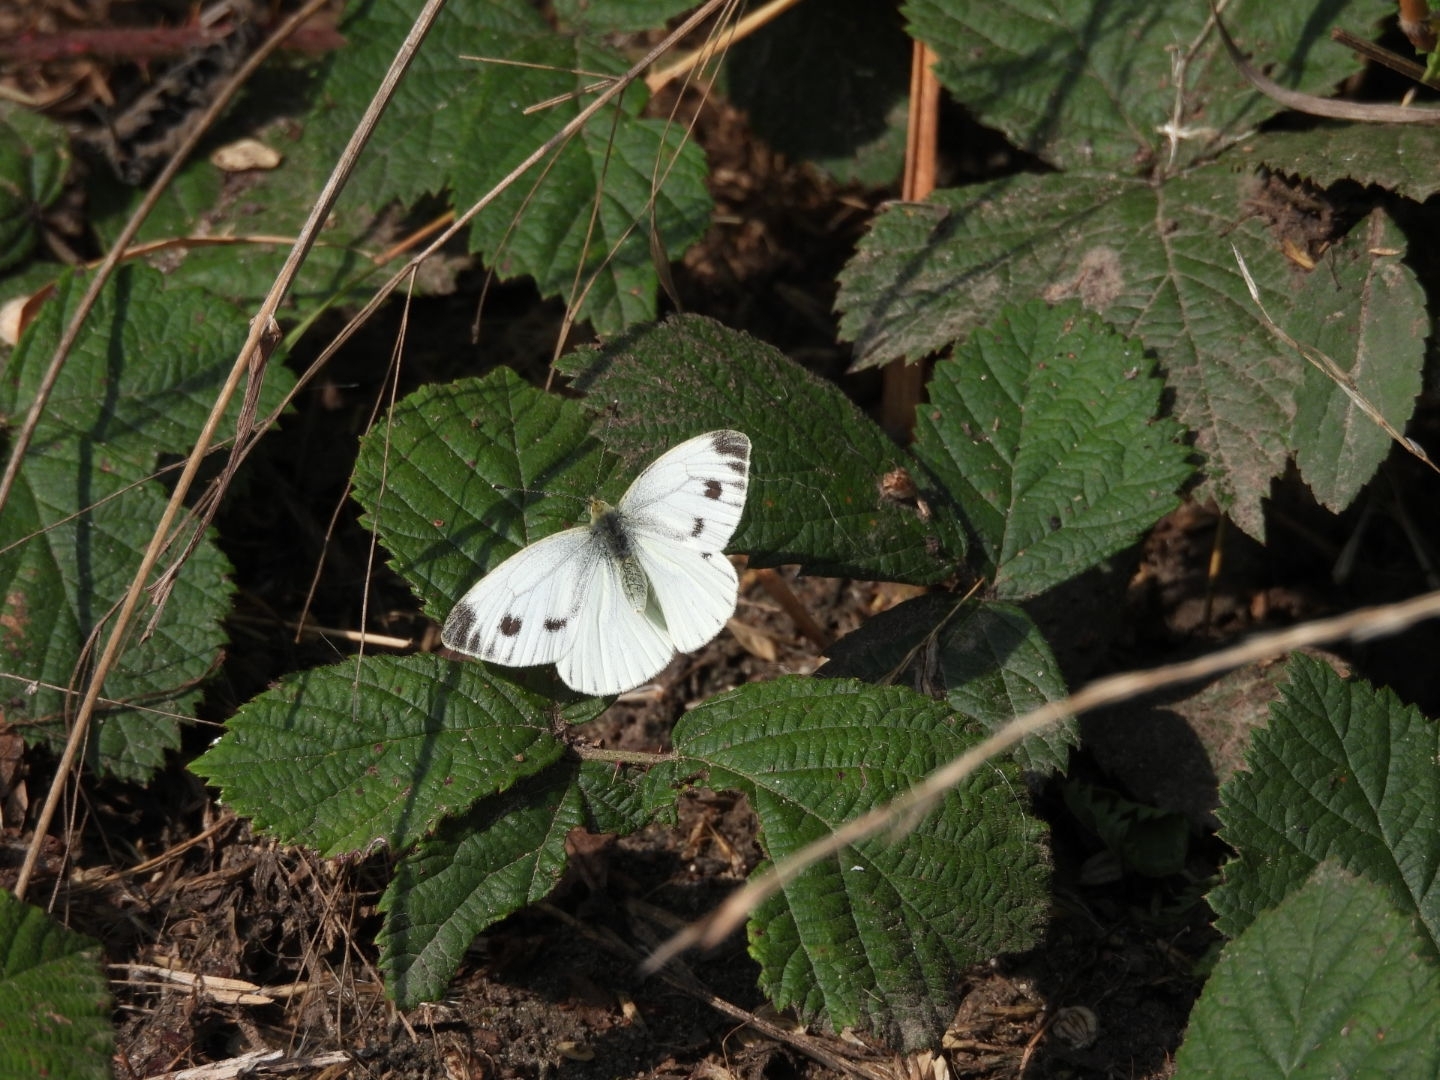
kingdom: Animalia
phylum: Arthropoda
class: Insecta
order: Lepidoptera
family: Pieridae
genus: Pieris
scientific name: Pieris napi
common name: Green-veined white
